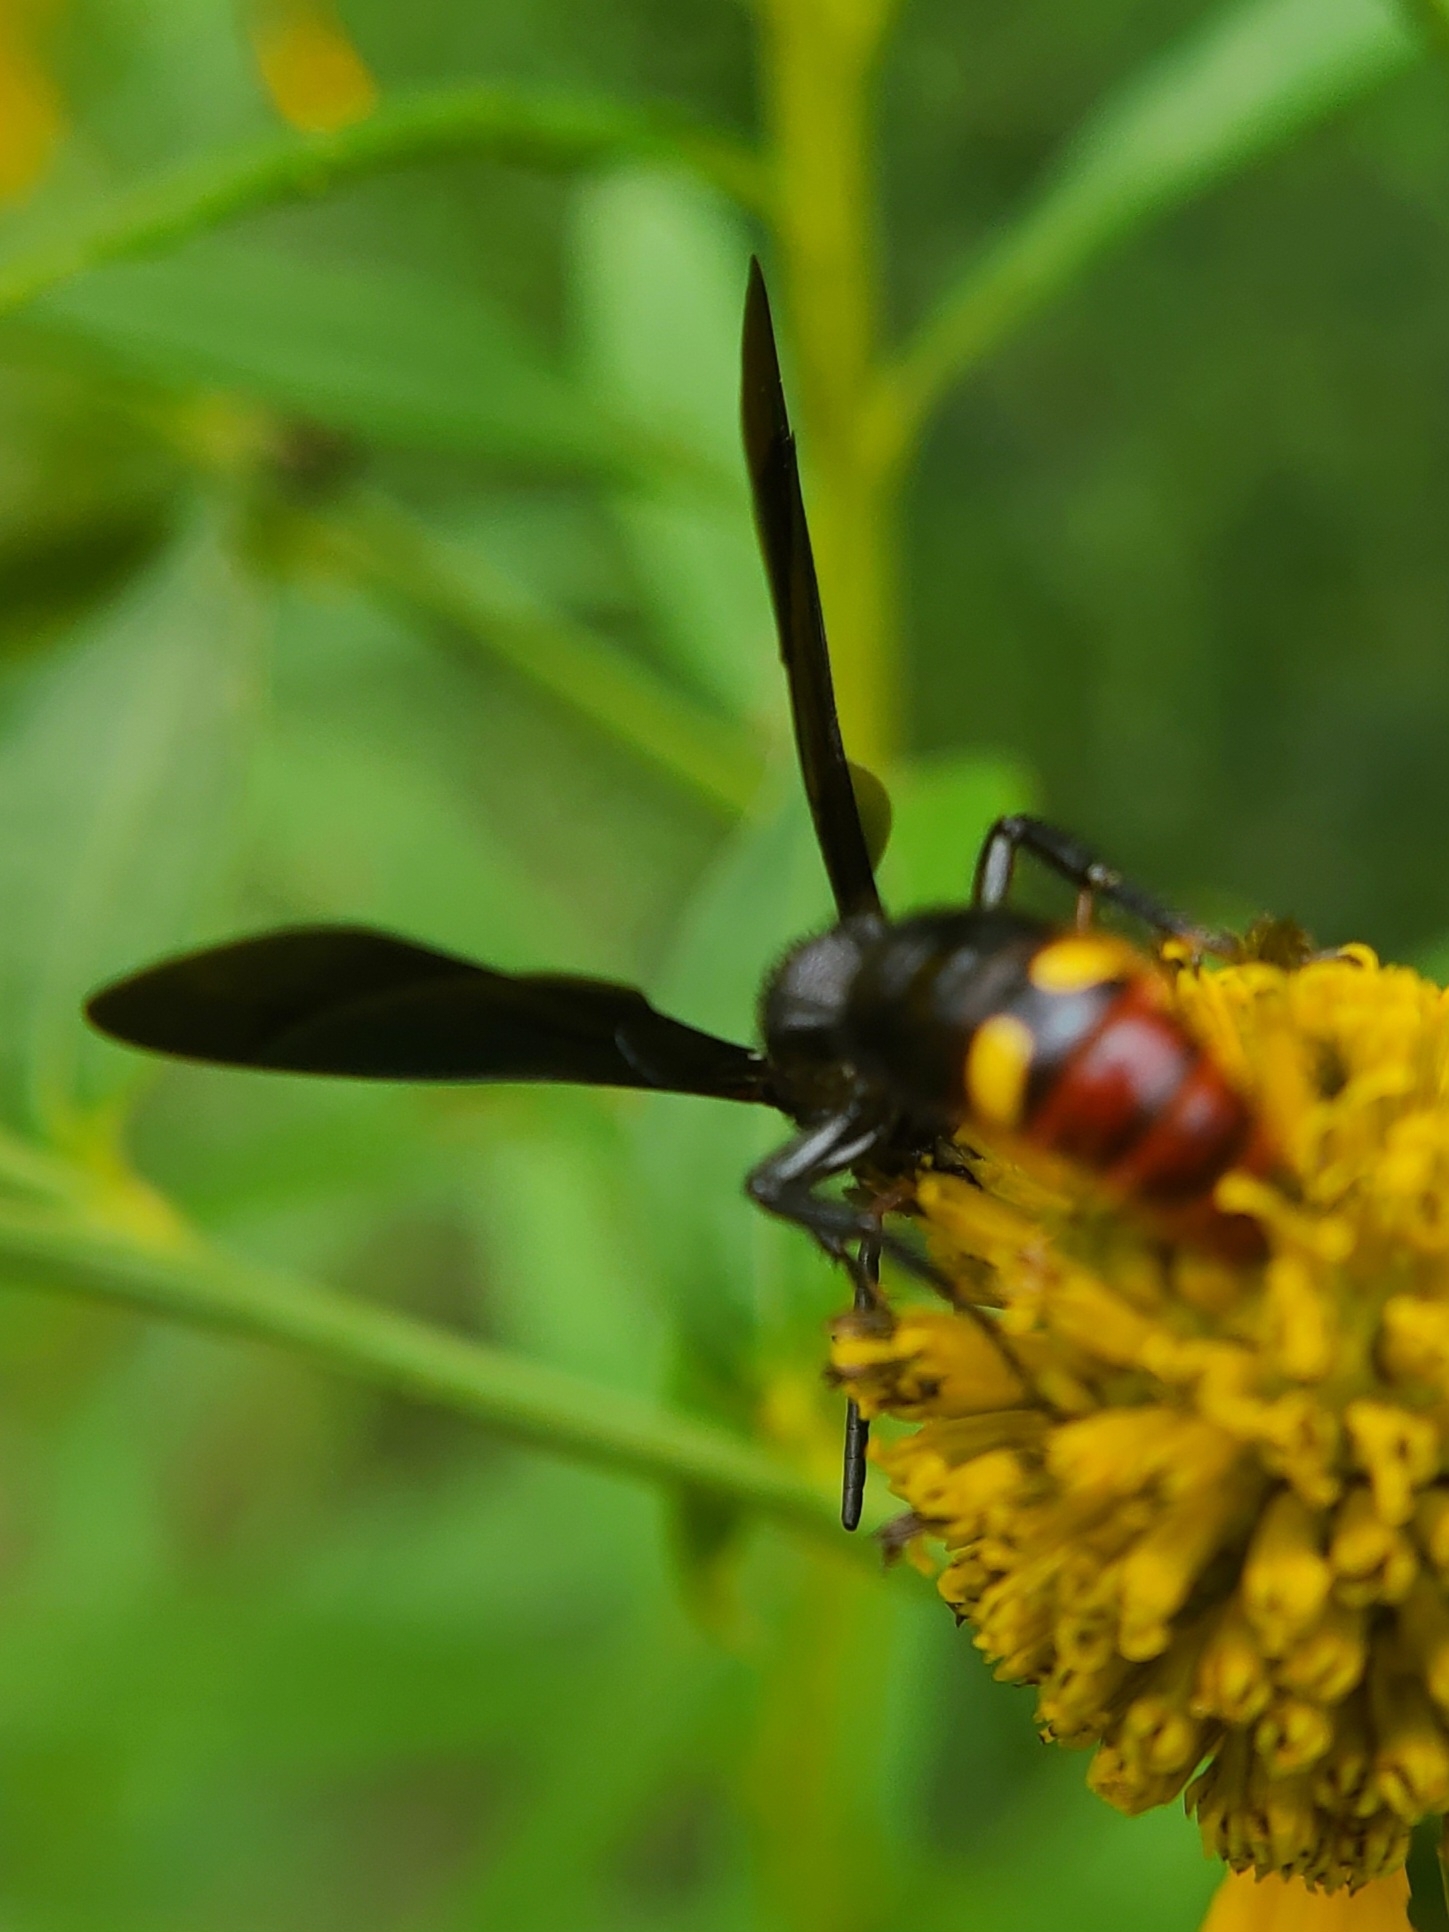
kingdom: Animalia
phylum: Arthropoda
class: Insecta
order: Hymenoptera
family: Scoliidae
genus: Scolia
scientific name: Scolia dubia
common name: Blue-winged scoliid wasp
